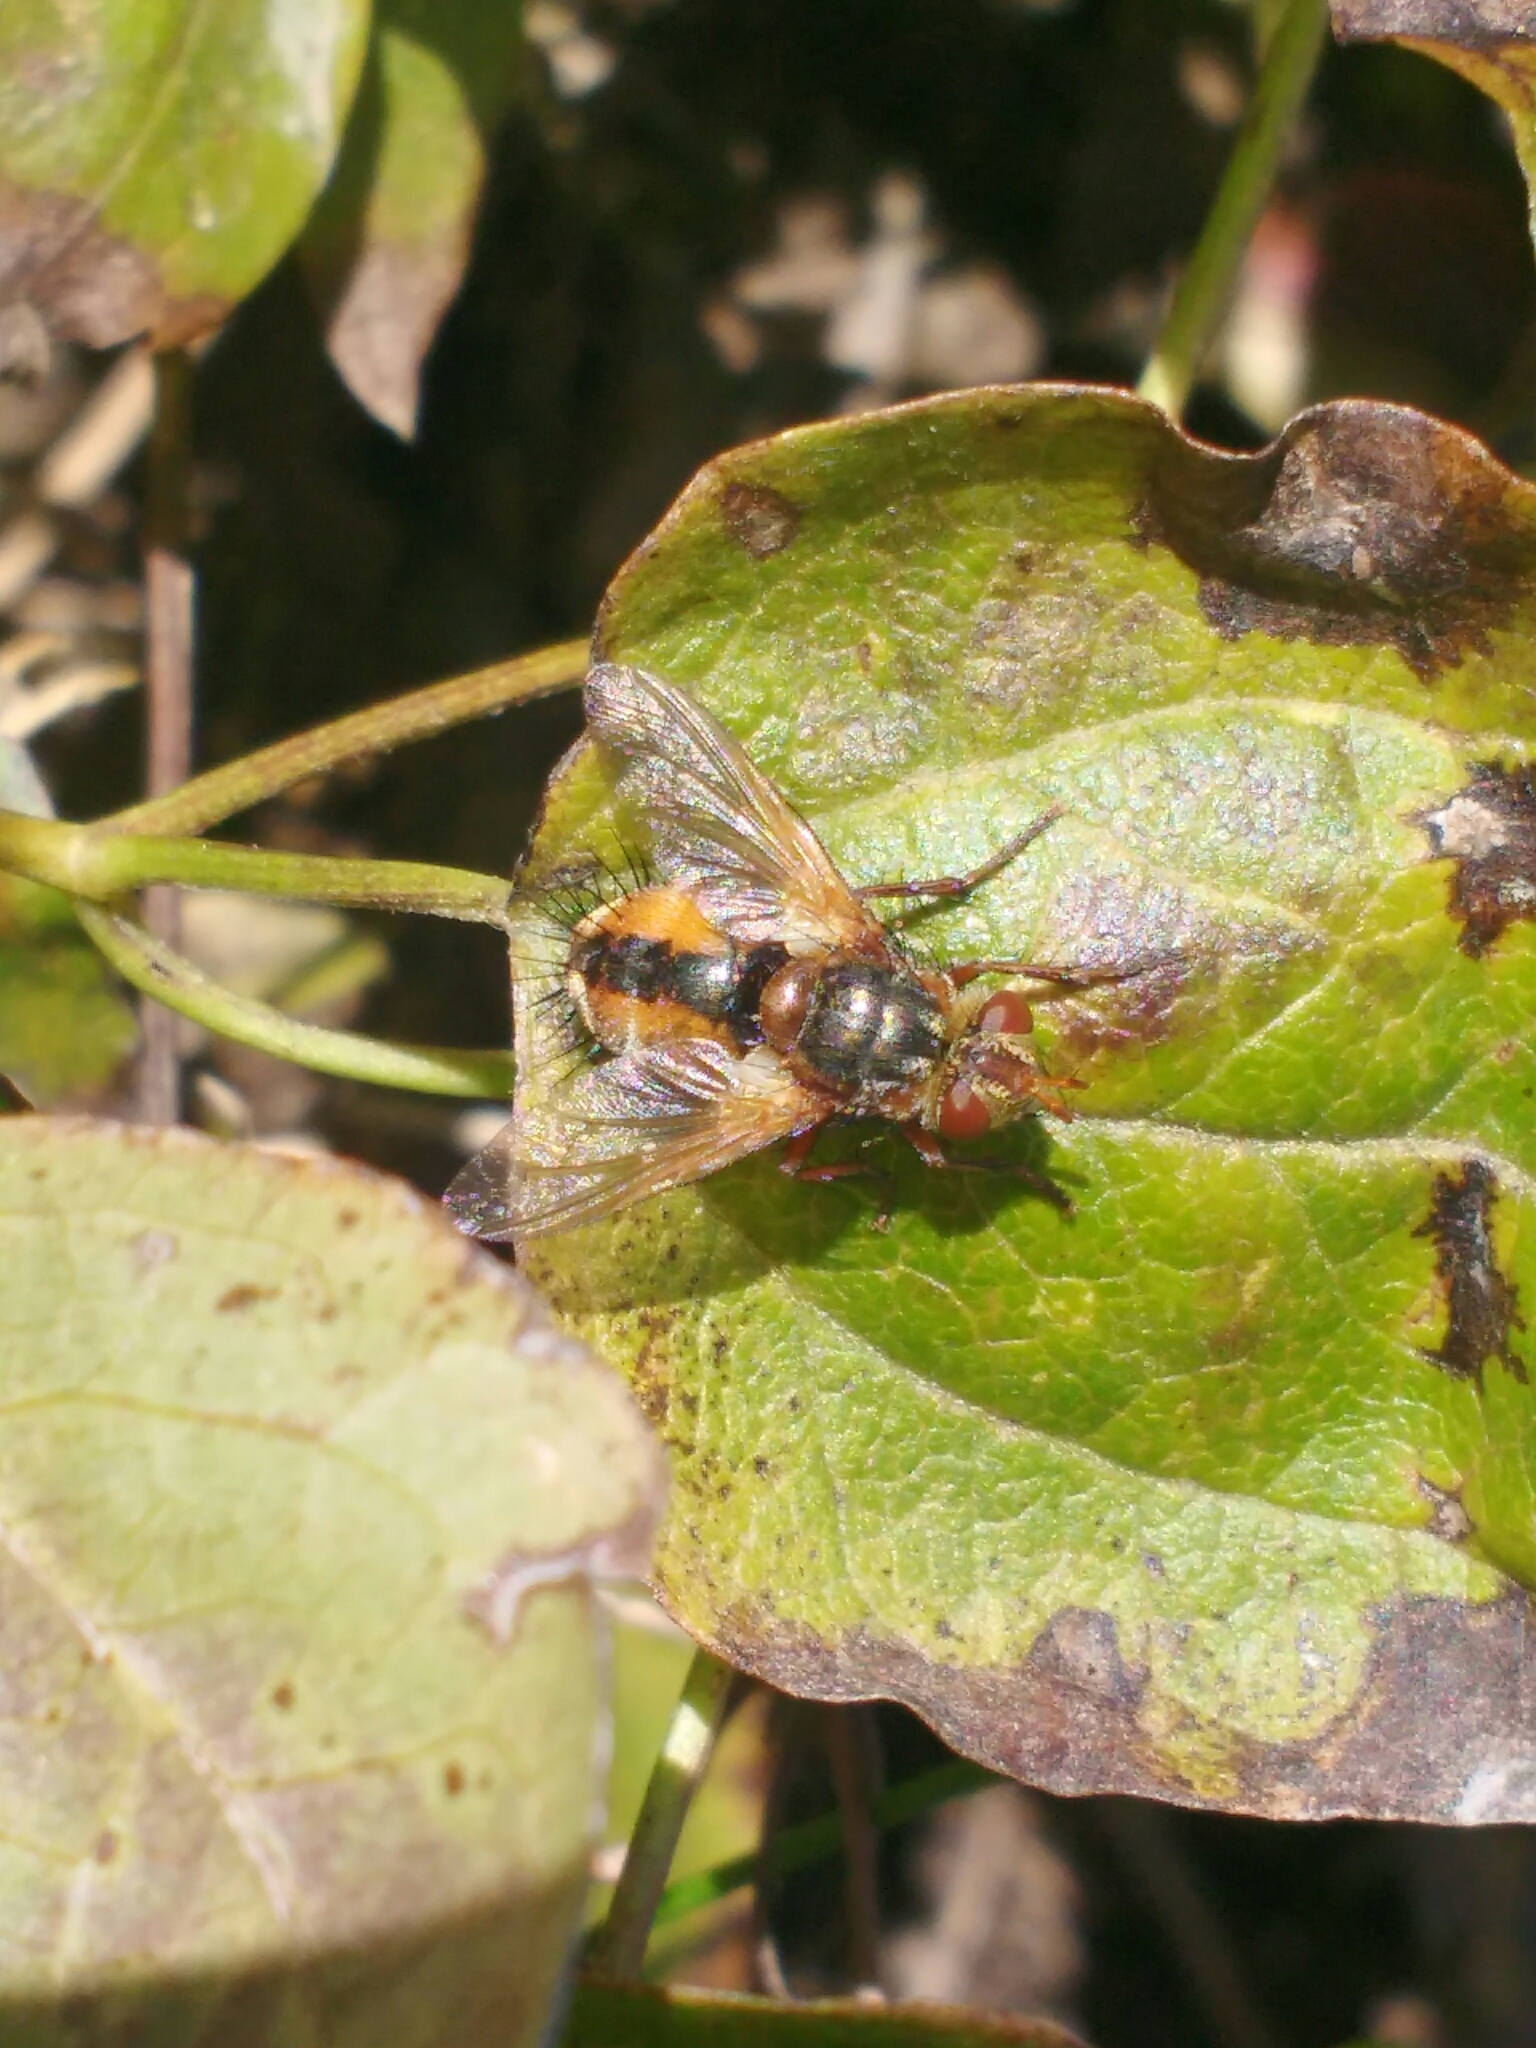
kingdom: Animalia
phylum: Arthropoda
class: Insecta
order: Diptera
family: Tachinidae
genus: Tachina
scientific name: Tachina fera
